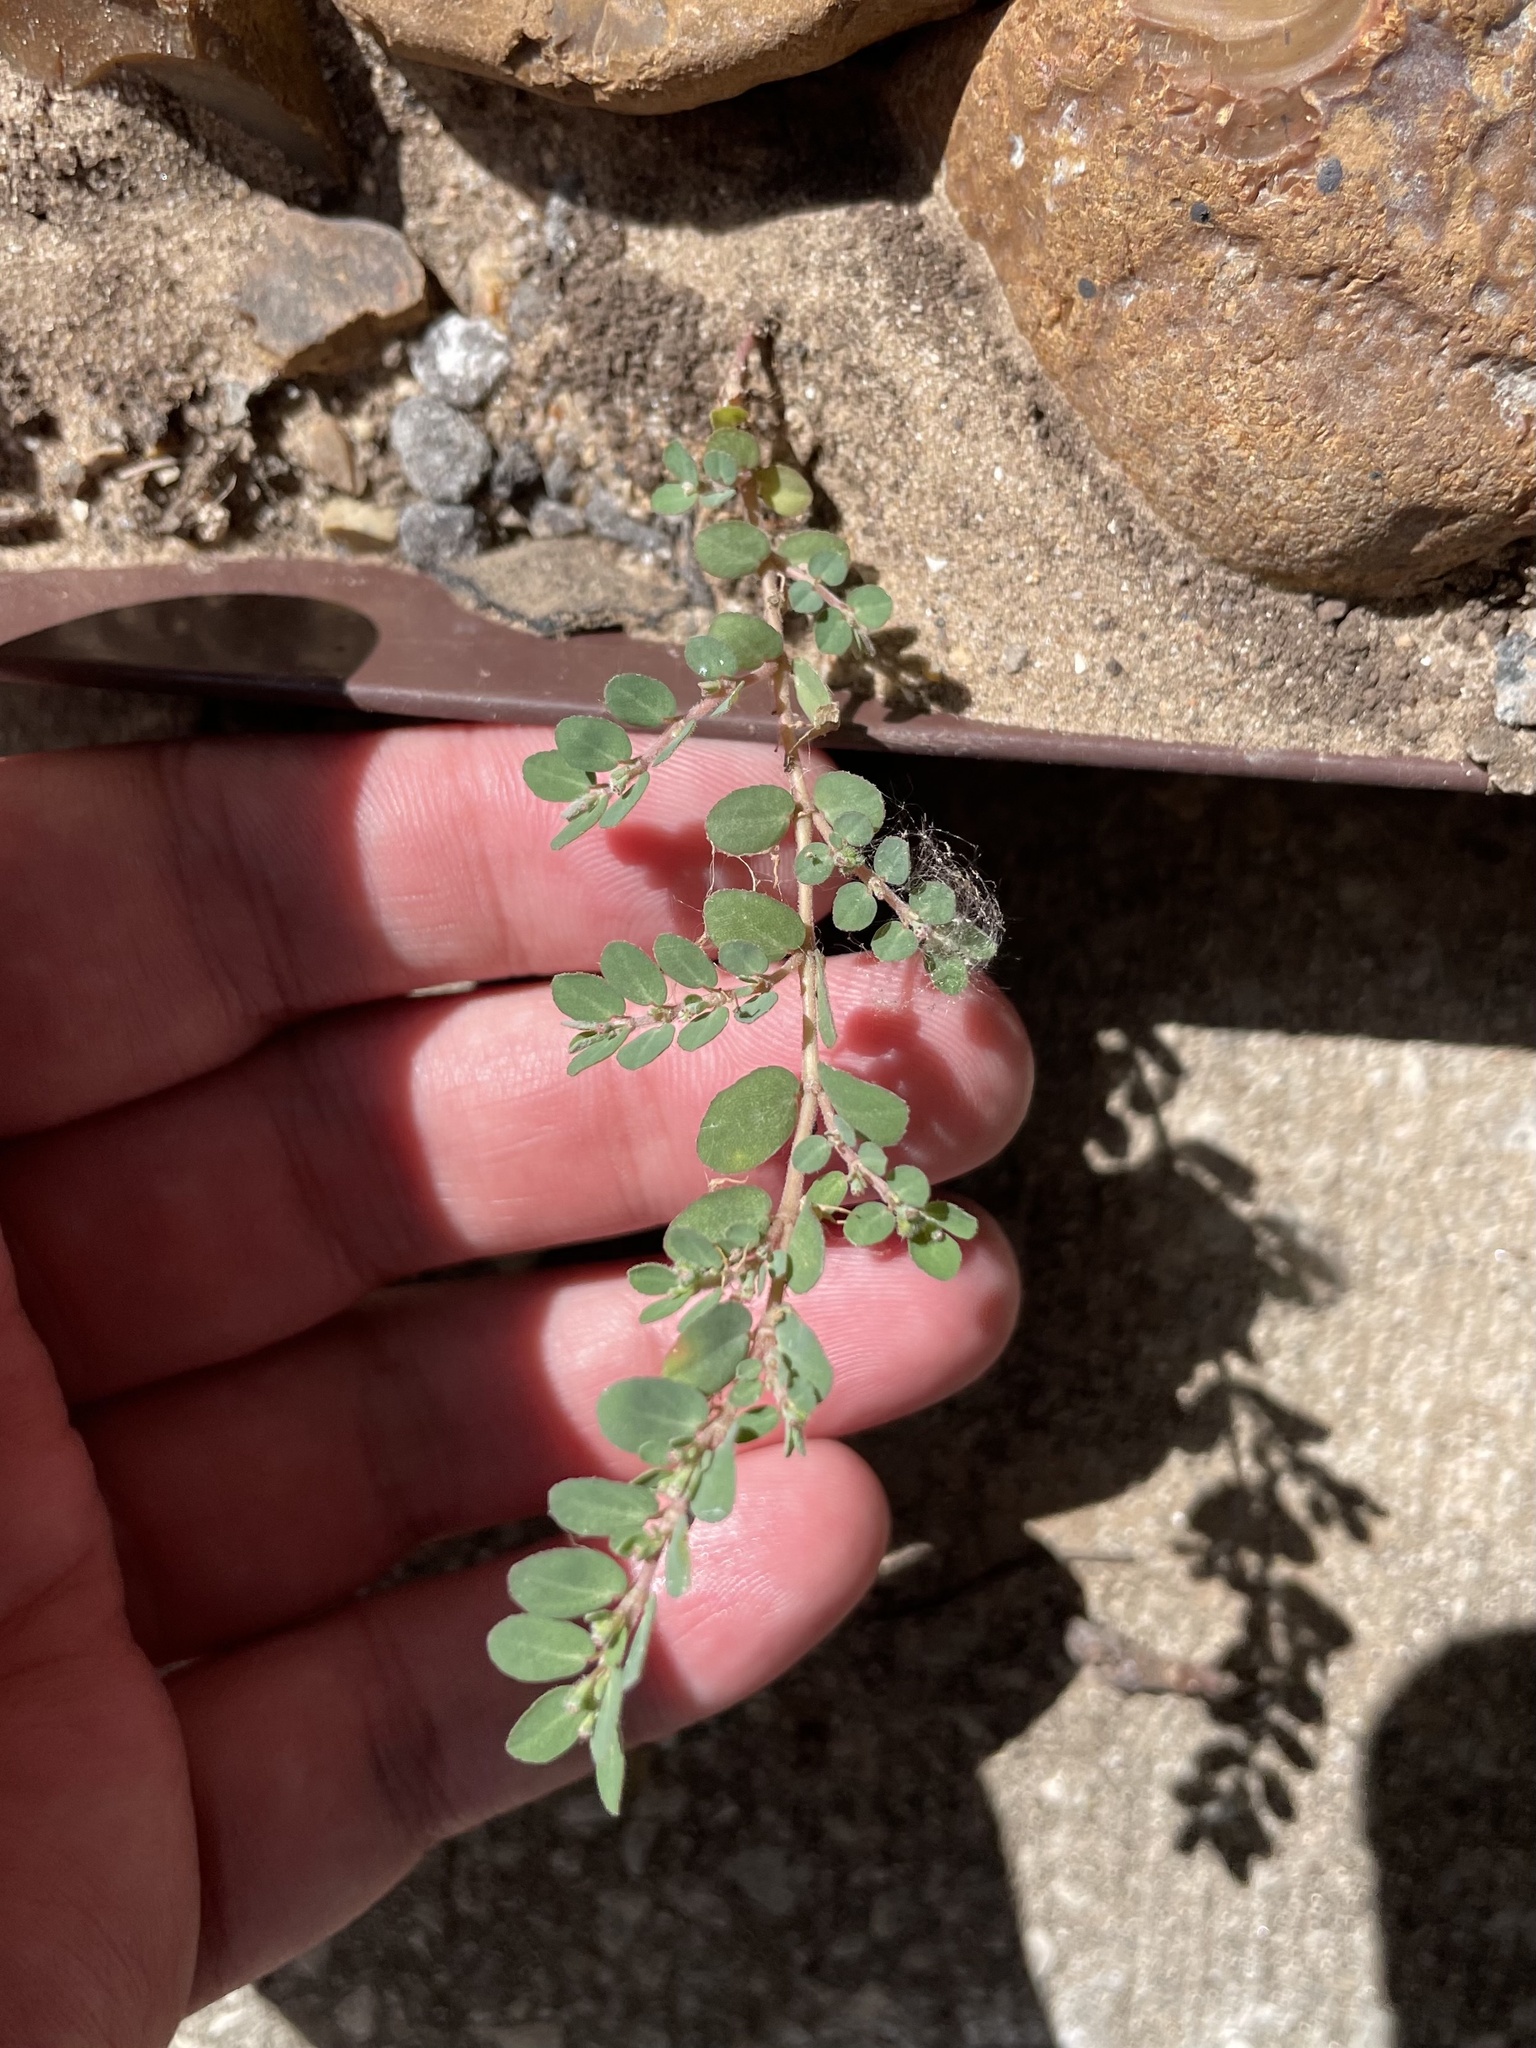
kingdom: Plantae
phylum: Tracheophyta
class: Magnoliopsida
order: Malpighiales
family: Euphorbiaceae
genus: Euphorbia
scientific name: Euphorbia prostrata
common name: Prostrate sandmat
